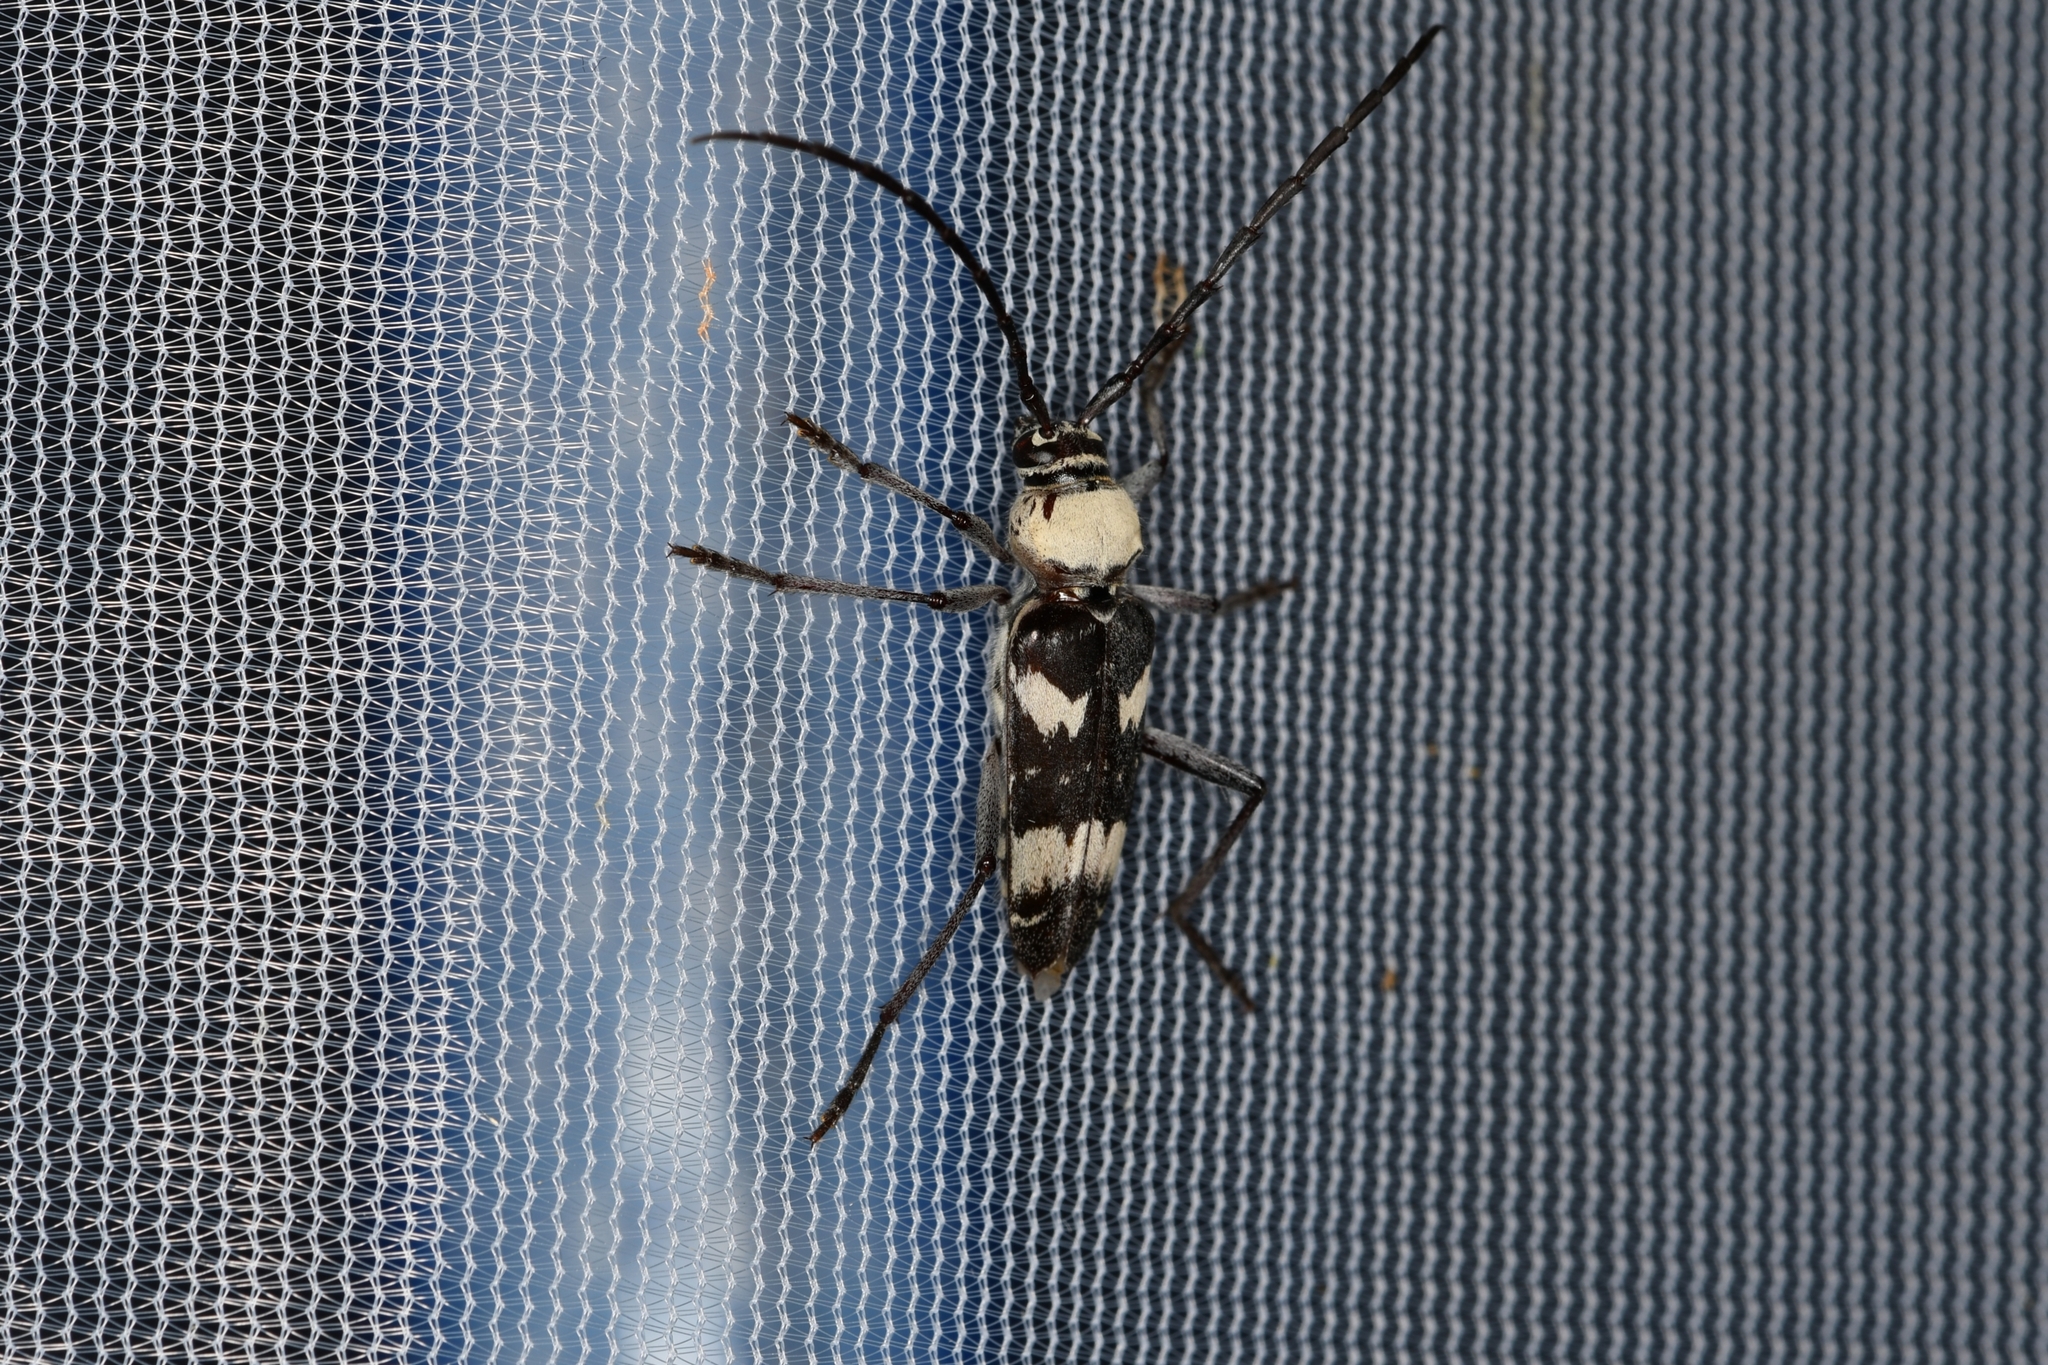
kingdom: Animalia
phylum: Arthropoda
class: Insecta
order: Coleoptera
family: Cerambycidae
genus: Megacyllene
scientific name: Megacyllene antennata
